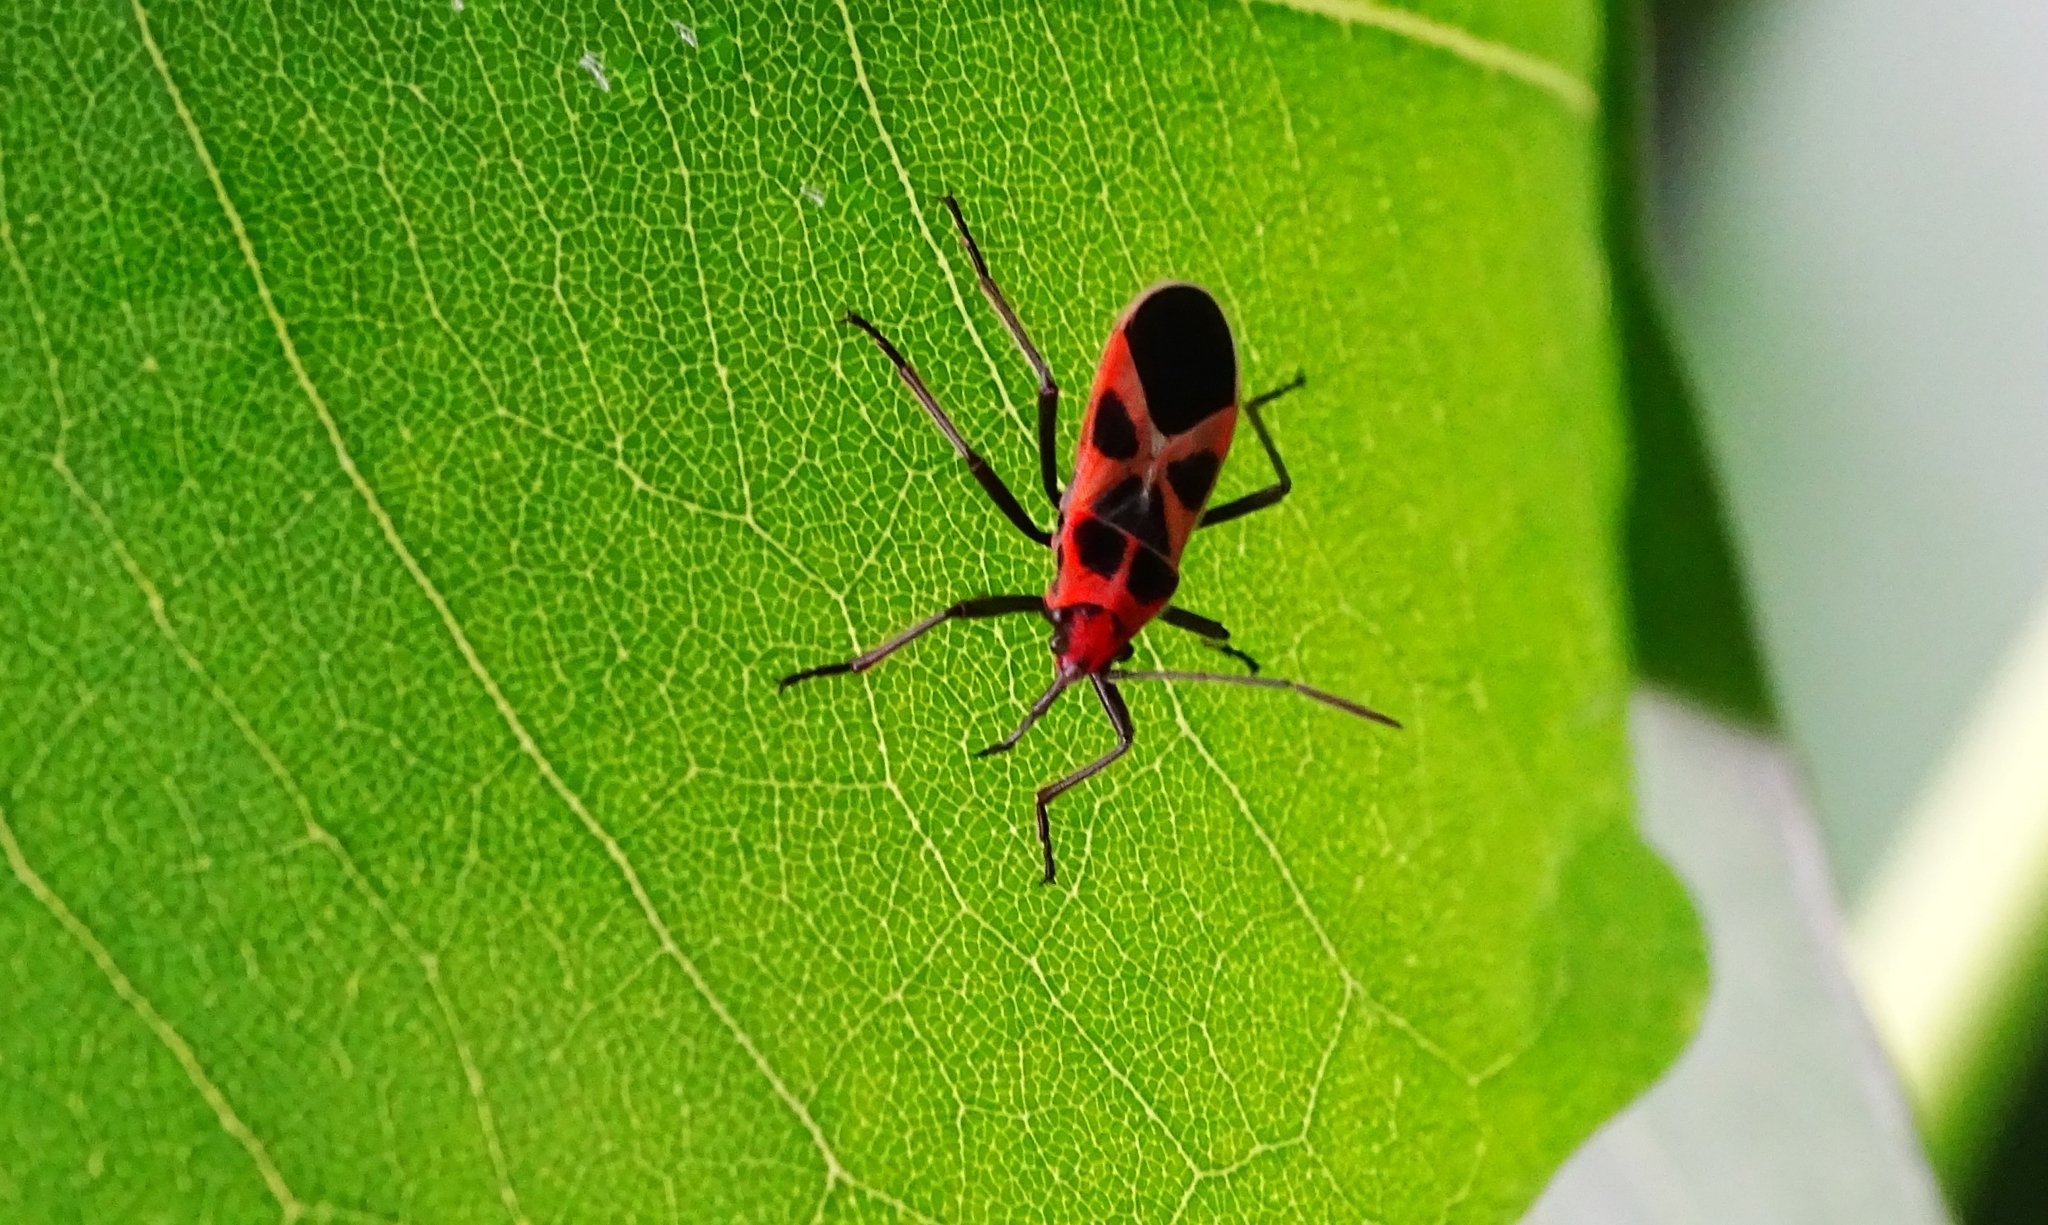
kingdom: Animalia
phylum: Arthropoda
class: Insecta
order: Hemiptera
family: Lygaeidae
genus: Tropidothorax
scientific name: Tropidothorax fimbriatus
